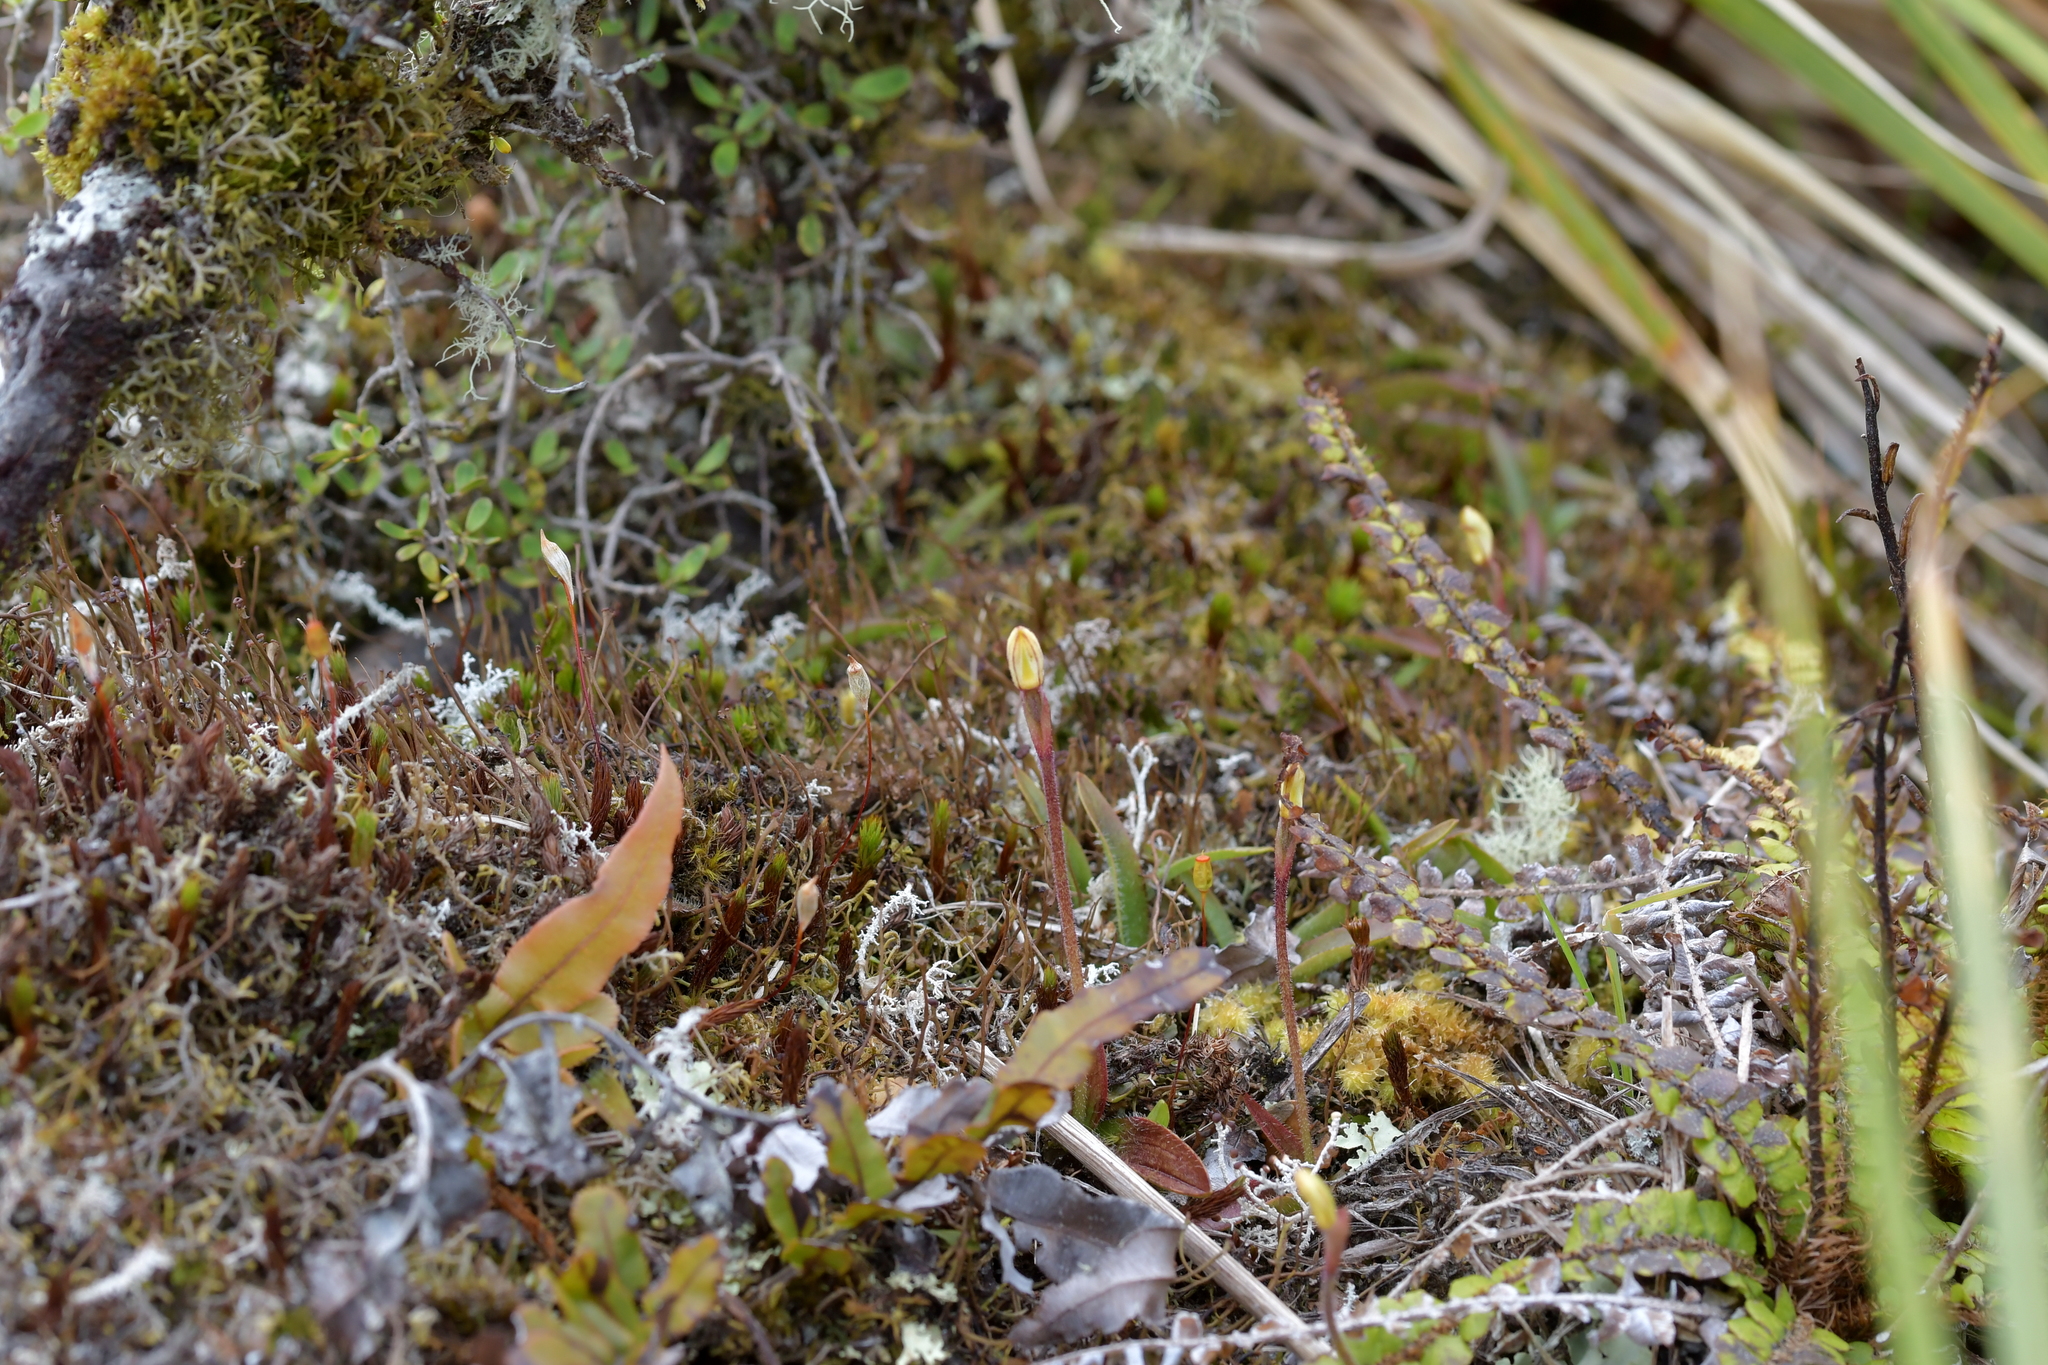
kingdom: Plantae
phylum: Tracheophyta
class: Liliopsida
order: Asparagales
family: Orchidaceae
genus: Aporostylis
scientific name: Aporostylis bifolia
